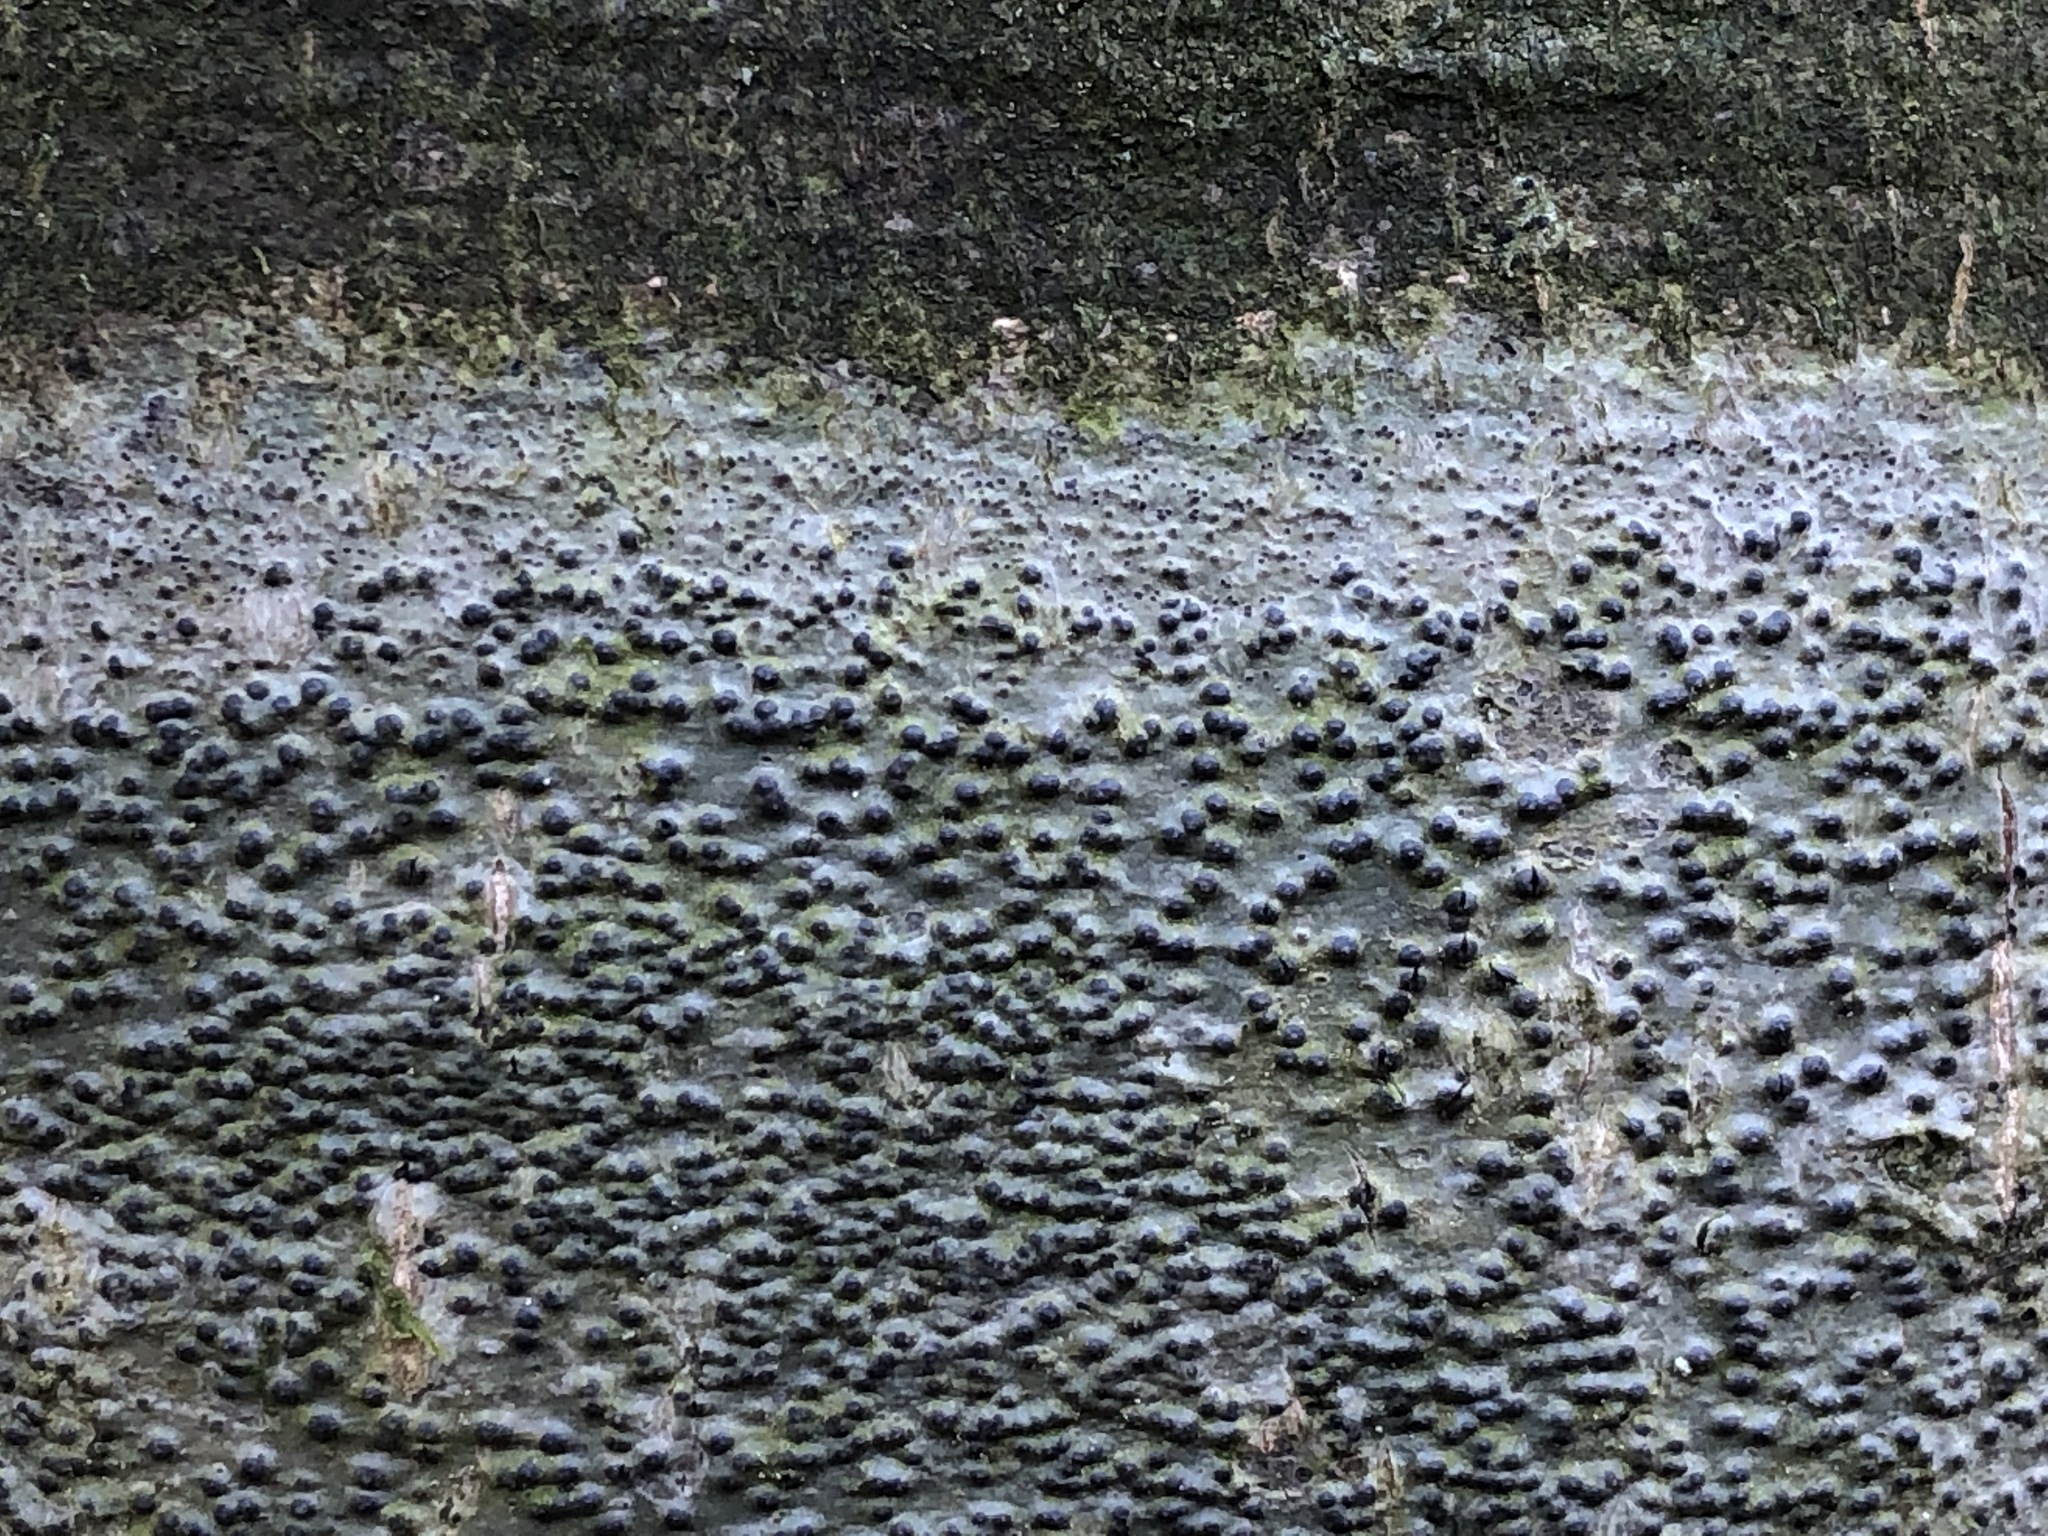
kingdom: Fungi
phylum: Ascomycota
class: Eurotiomycetes
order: Pyrenulales
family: Pyrenulaceae
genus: Pyrenula
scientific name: Pyrenula nitida
